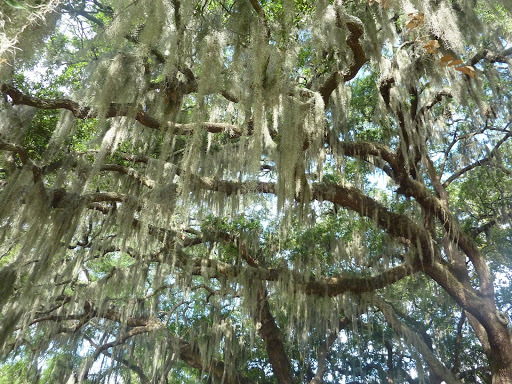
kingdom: Plantae
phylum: Tracheophyta
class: Liliopsida
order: Poales
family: Bromeliaceae
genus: Tillandsia
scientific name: Tillandsia usneoides
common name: Spanish moss
